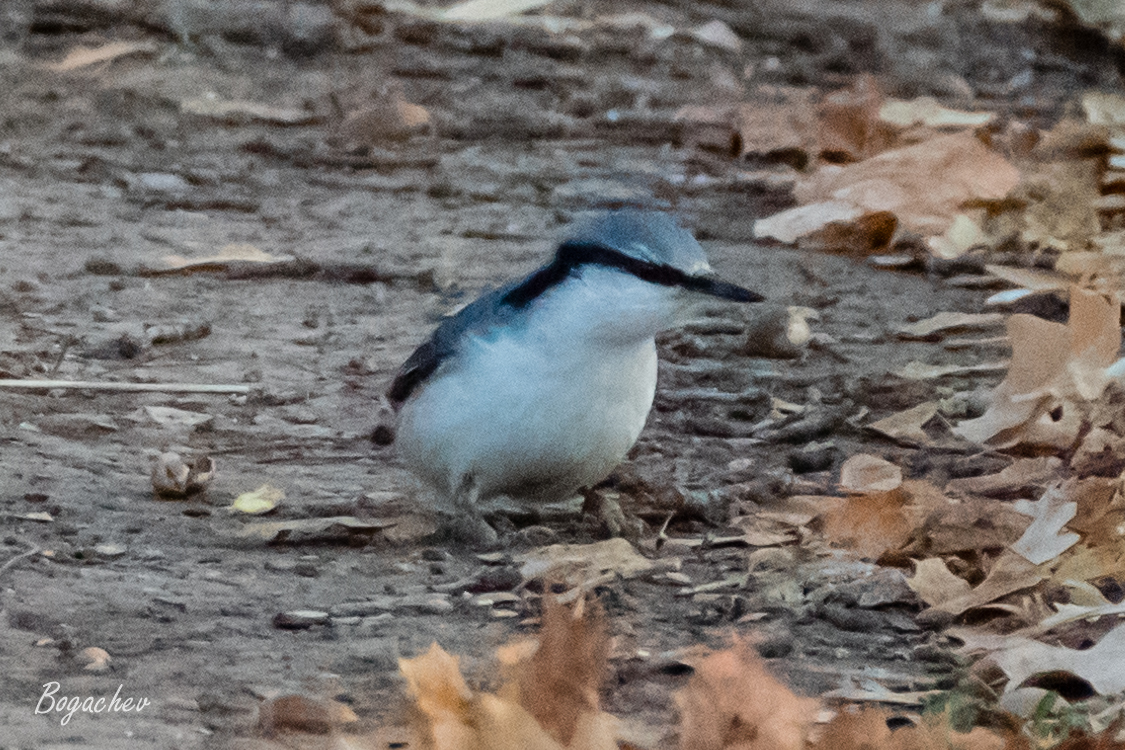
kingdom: Animalia
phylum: Chordata
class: Aves
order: Passeriformes
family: Sittidae
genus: Sitta
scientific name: Sitta europaea
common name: Eurasian nuthatch
